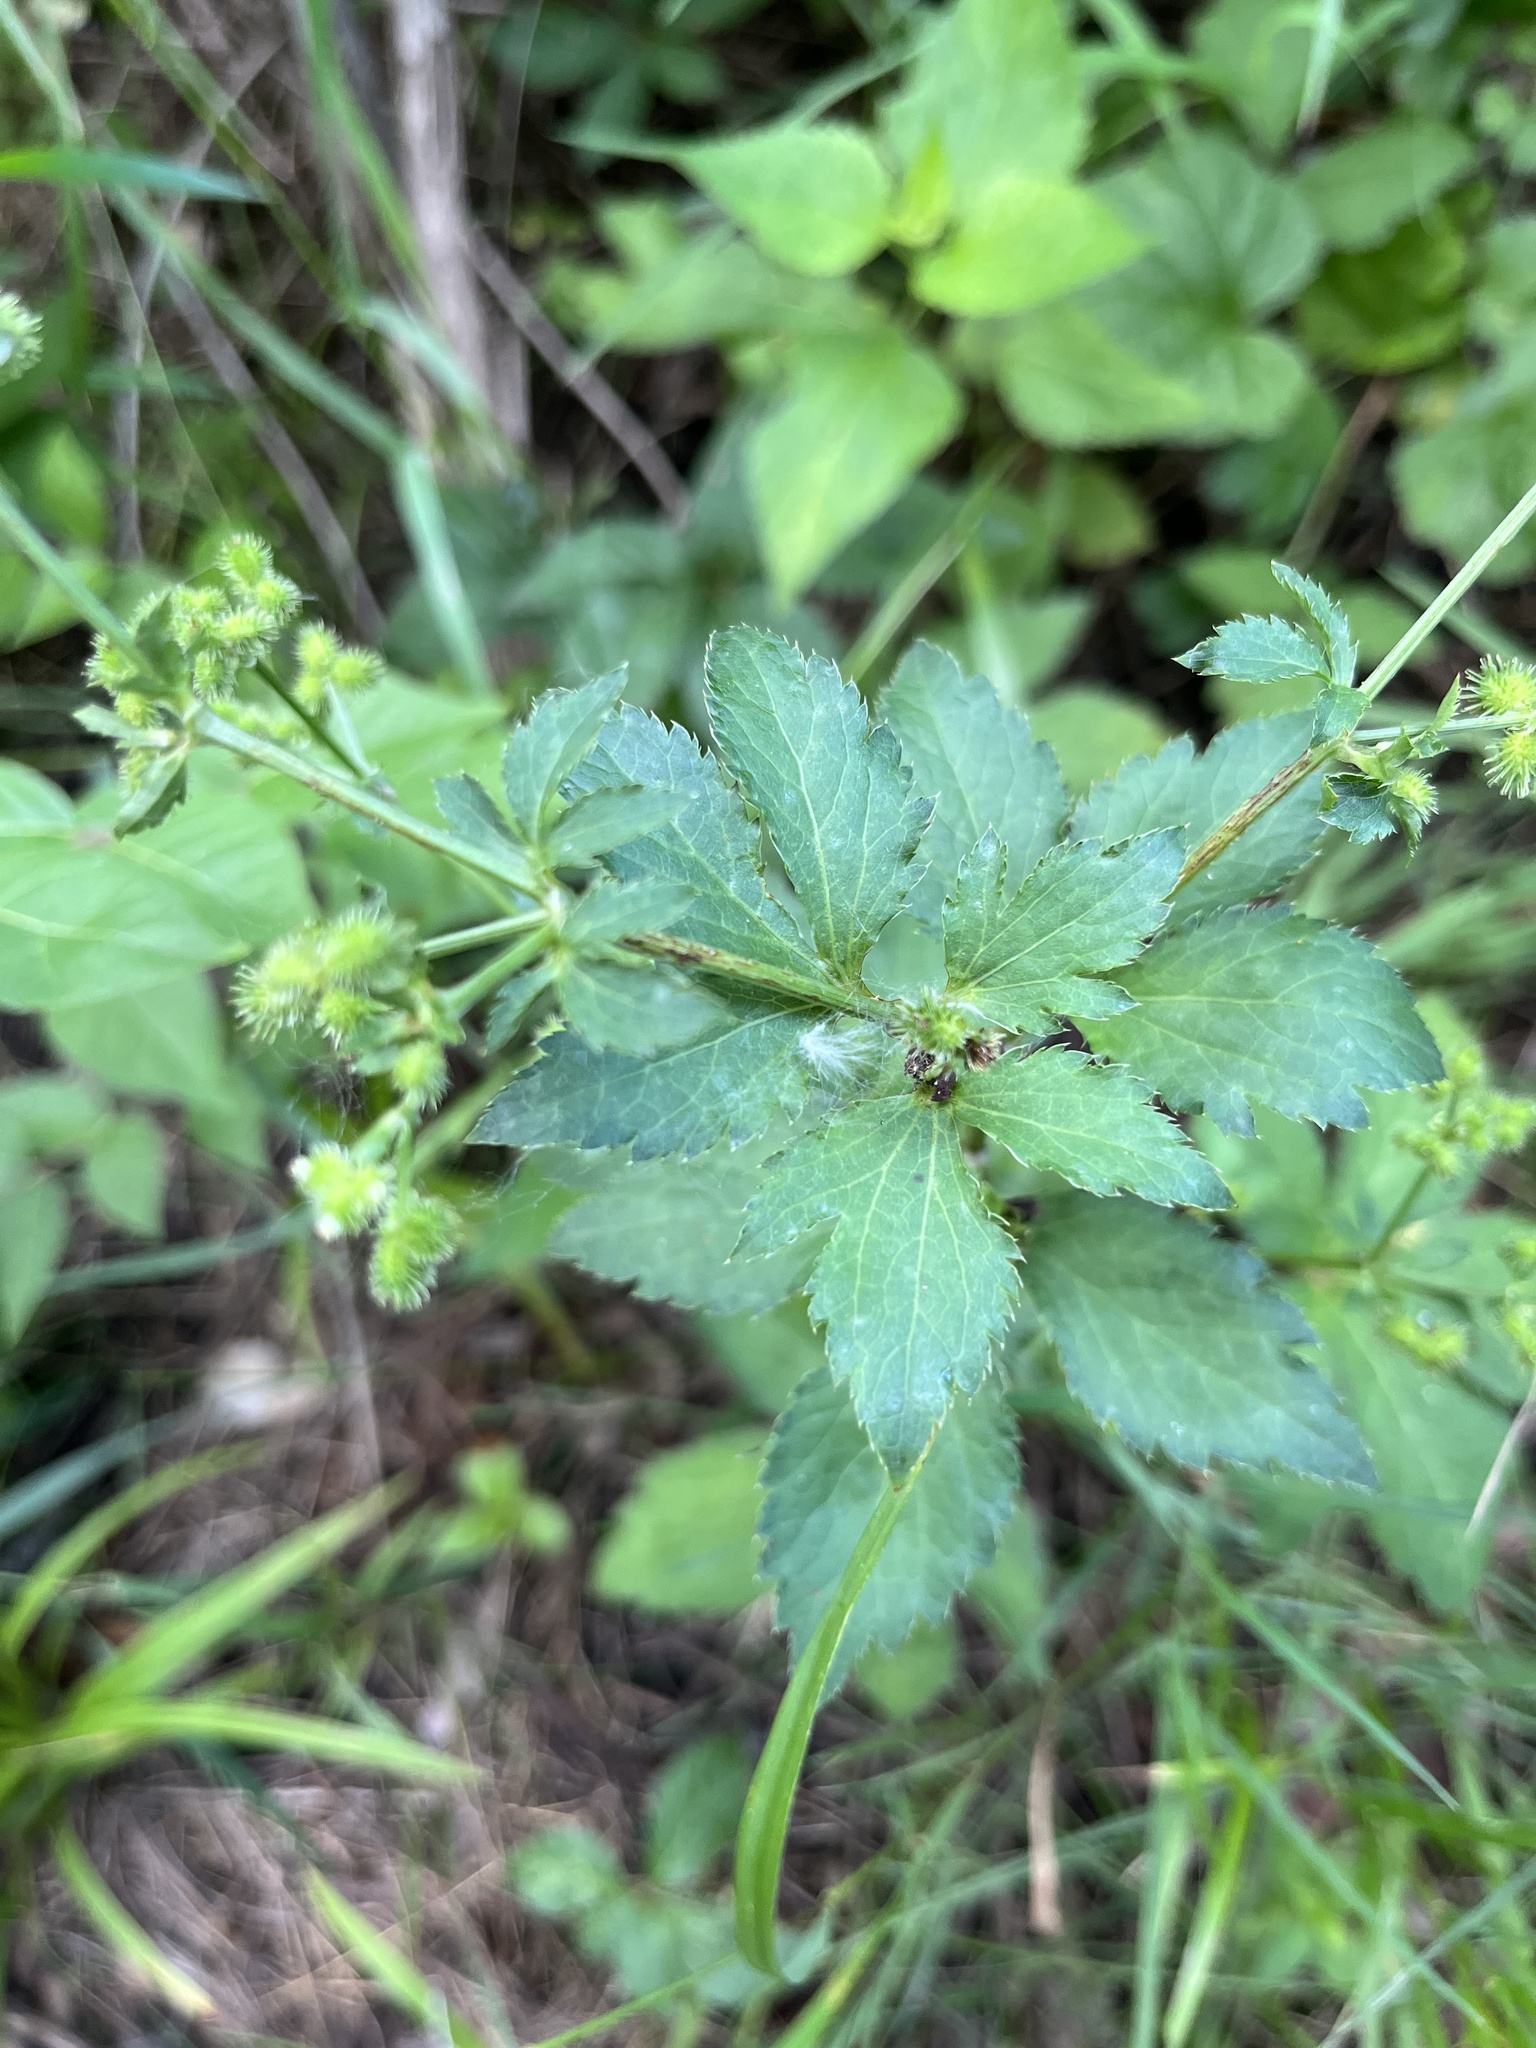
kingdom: Plantae
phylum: Tracheophyta
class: Magnoliopsida
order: Apiales
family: Apiaceae
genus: Sanicula
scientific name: Sanicula canadensis
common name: Canada sanicle
